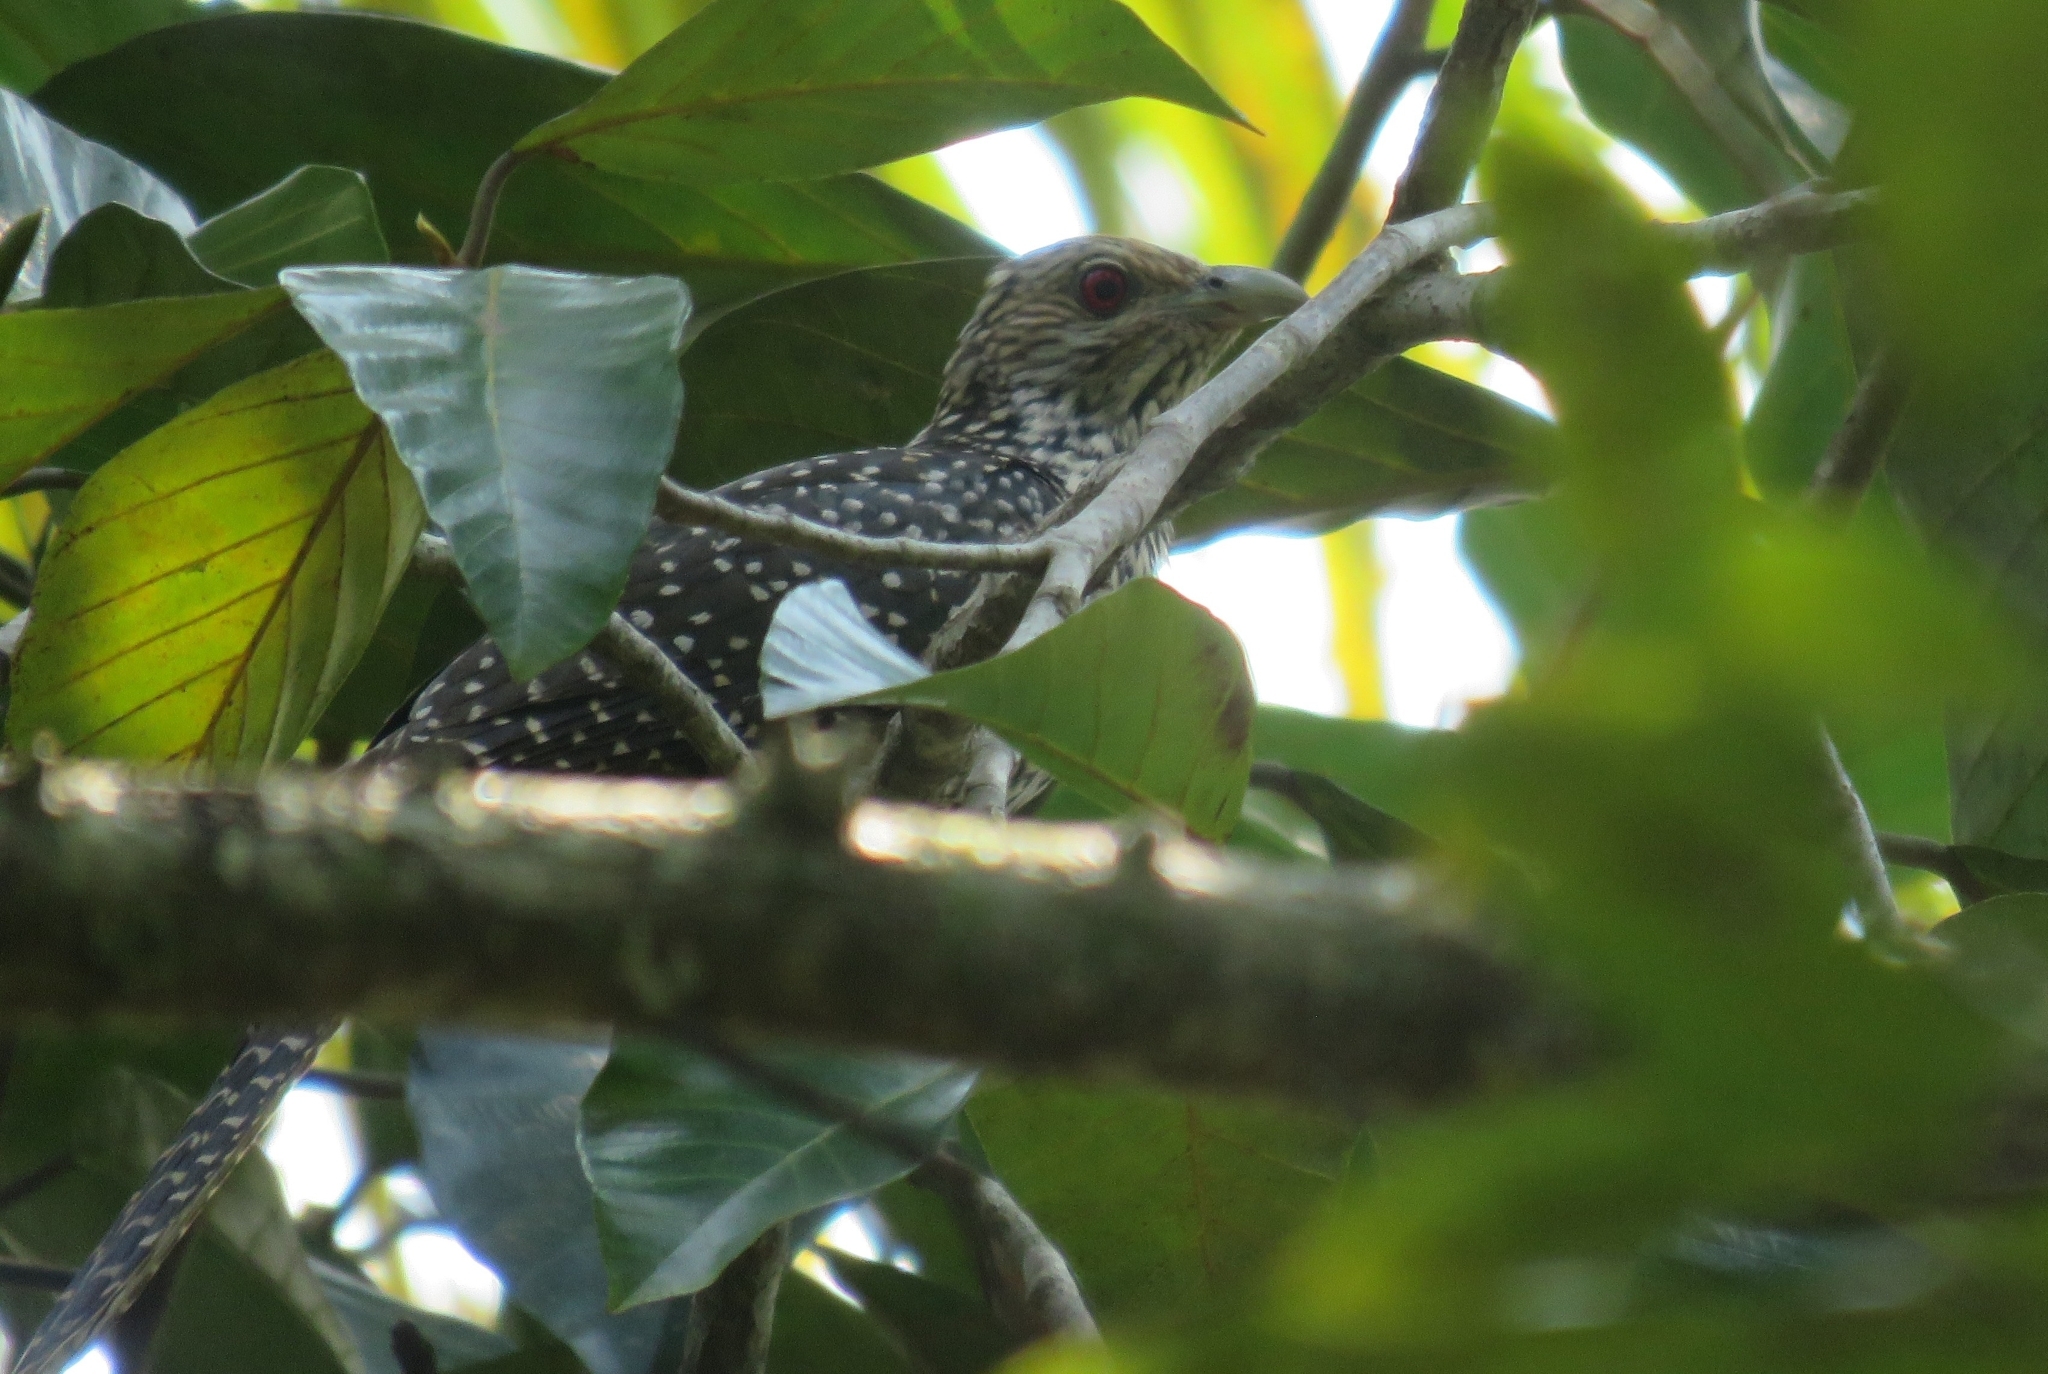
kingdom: Animalia
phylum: Chordata
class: Aves
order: Cuculiformes
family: Cuculidae
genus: Eudynamys
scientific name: Eudynamys scolopaceus
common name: Asian koel
